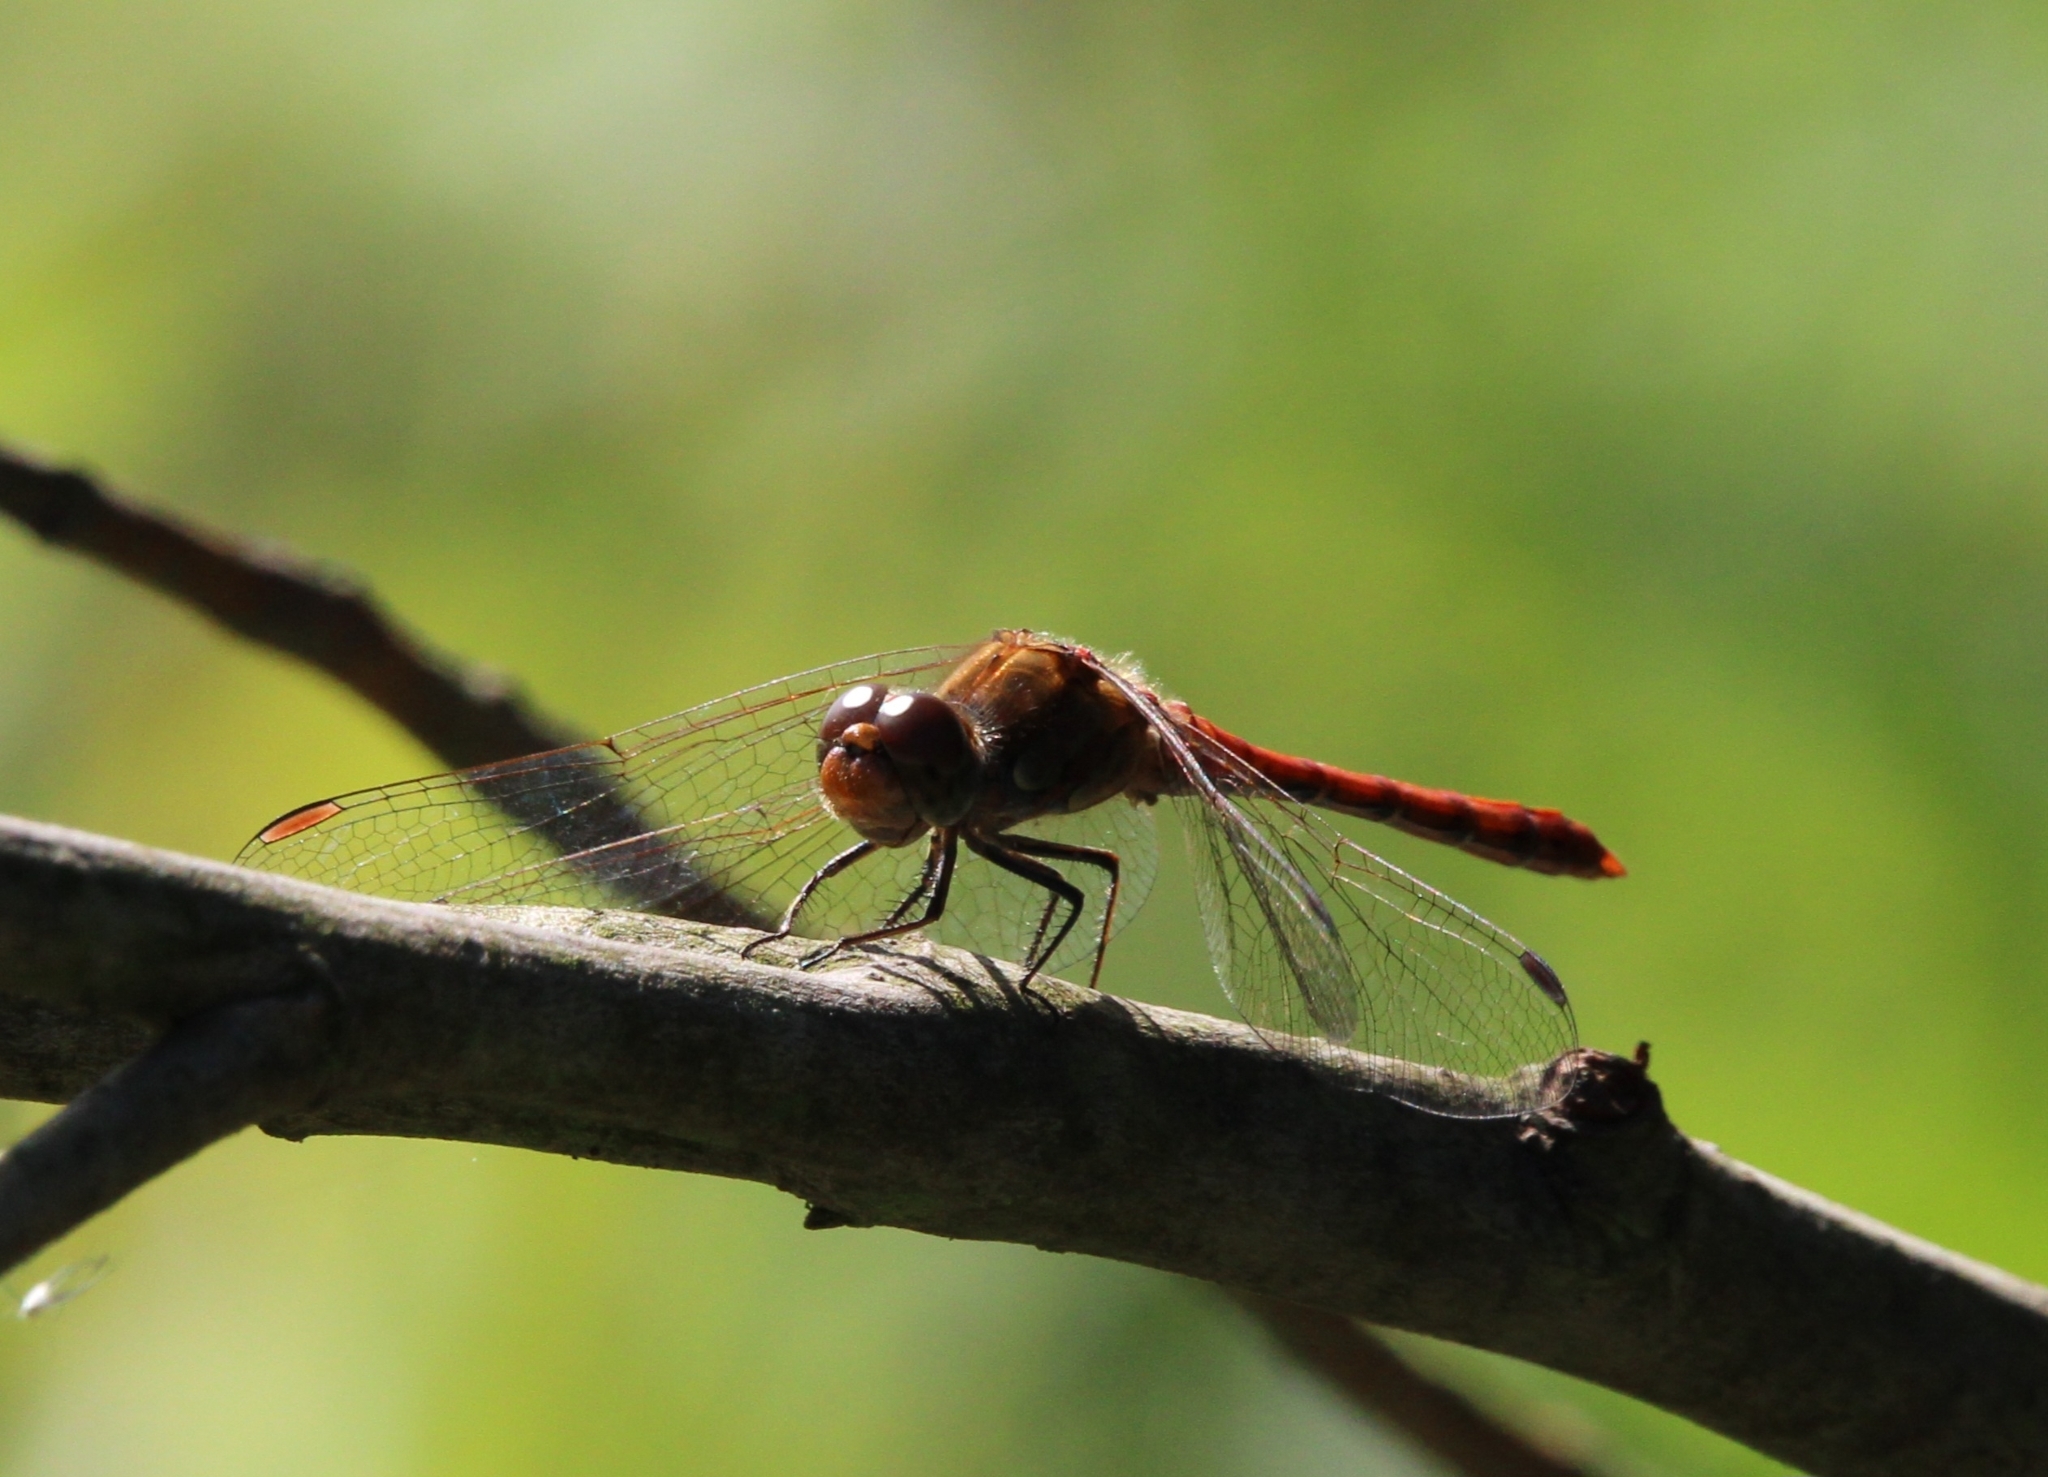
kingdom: Animalia
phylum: Arthropoda
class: Insecta
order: Odonata
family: Libellulidae
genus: Sympetrum
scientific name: Sympetrum striolatum
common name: Common darter
